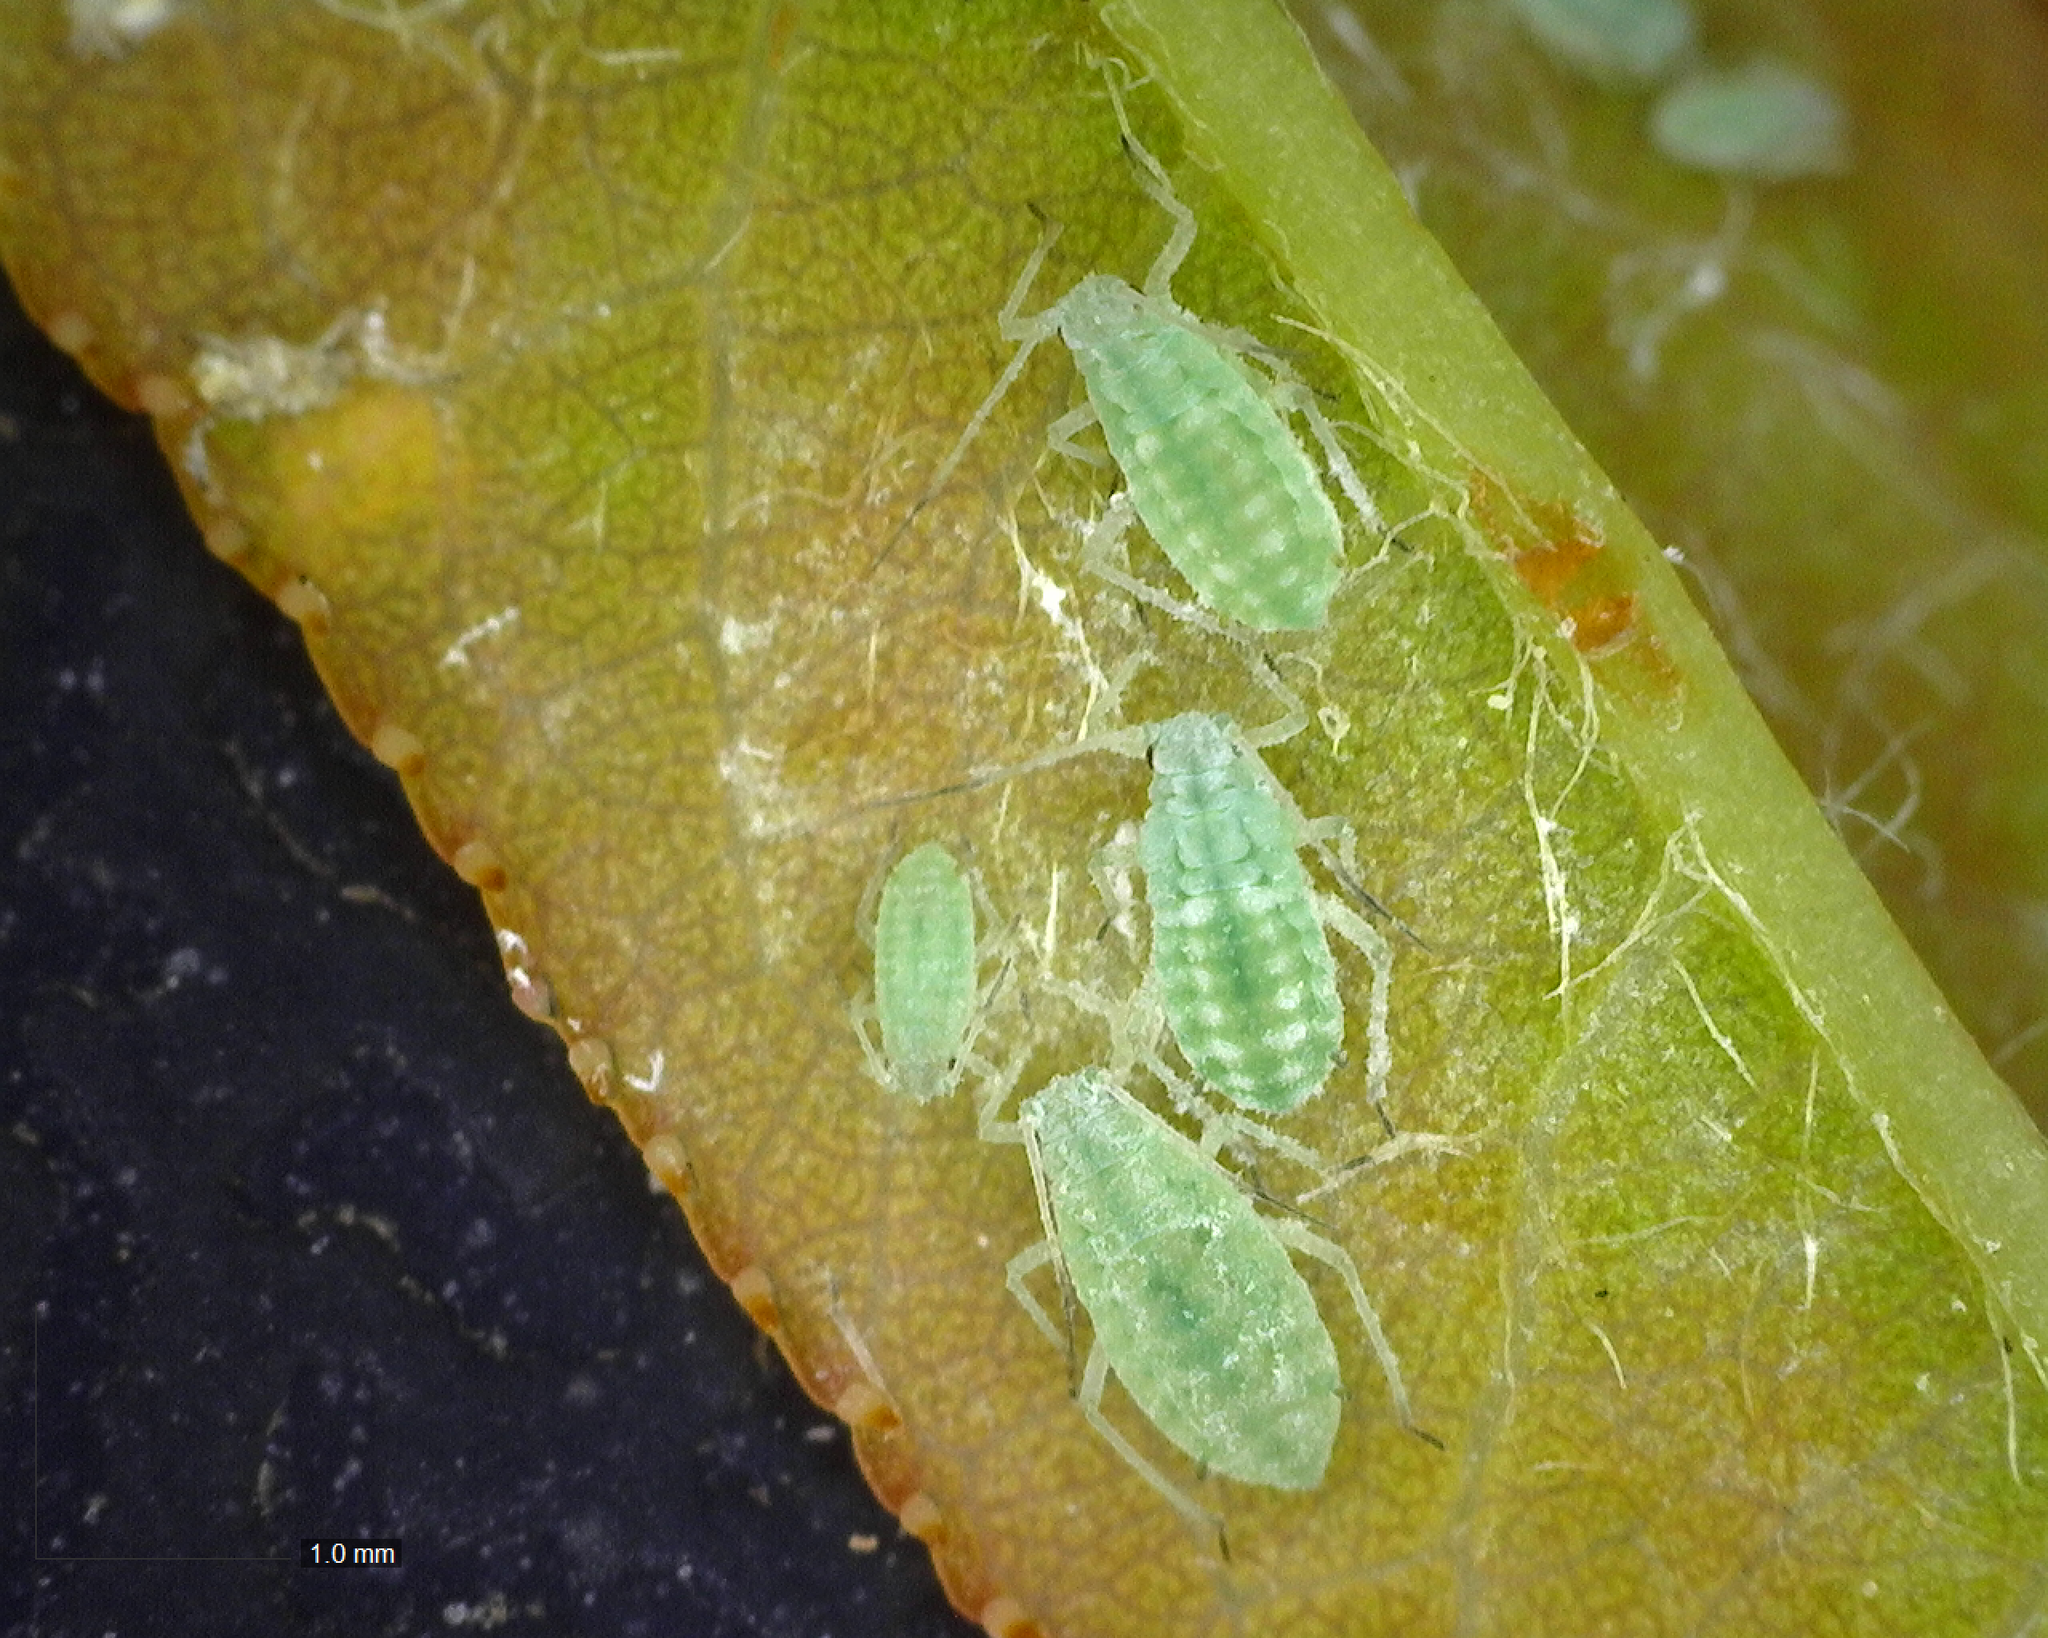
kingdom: Animalia
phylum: Arthropoda
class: Insecta
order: Hemiptera
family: Aphididae
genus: Hyalopterus
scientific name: Hyalopterus pruni
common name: Mealy plum aphid
